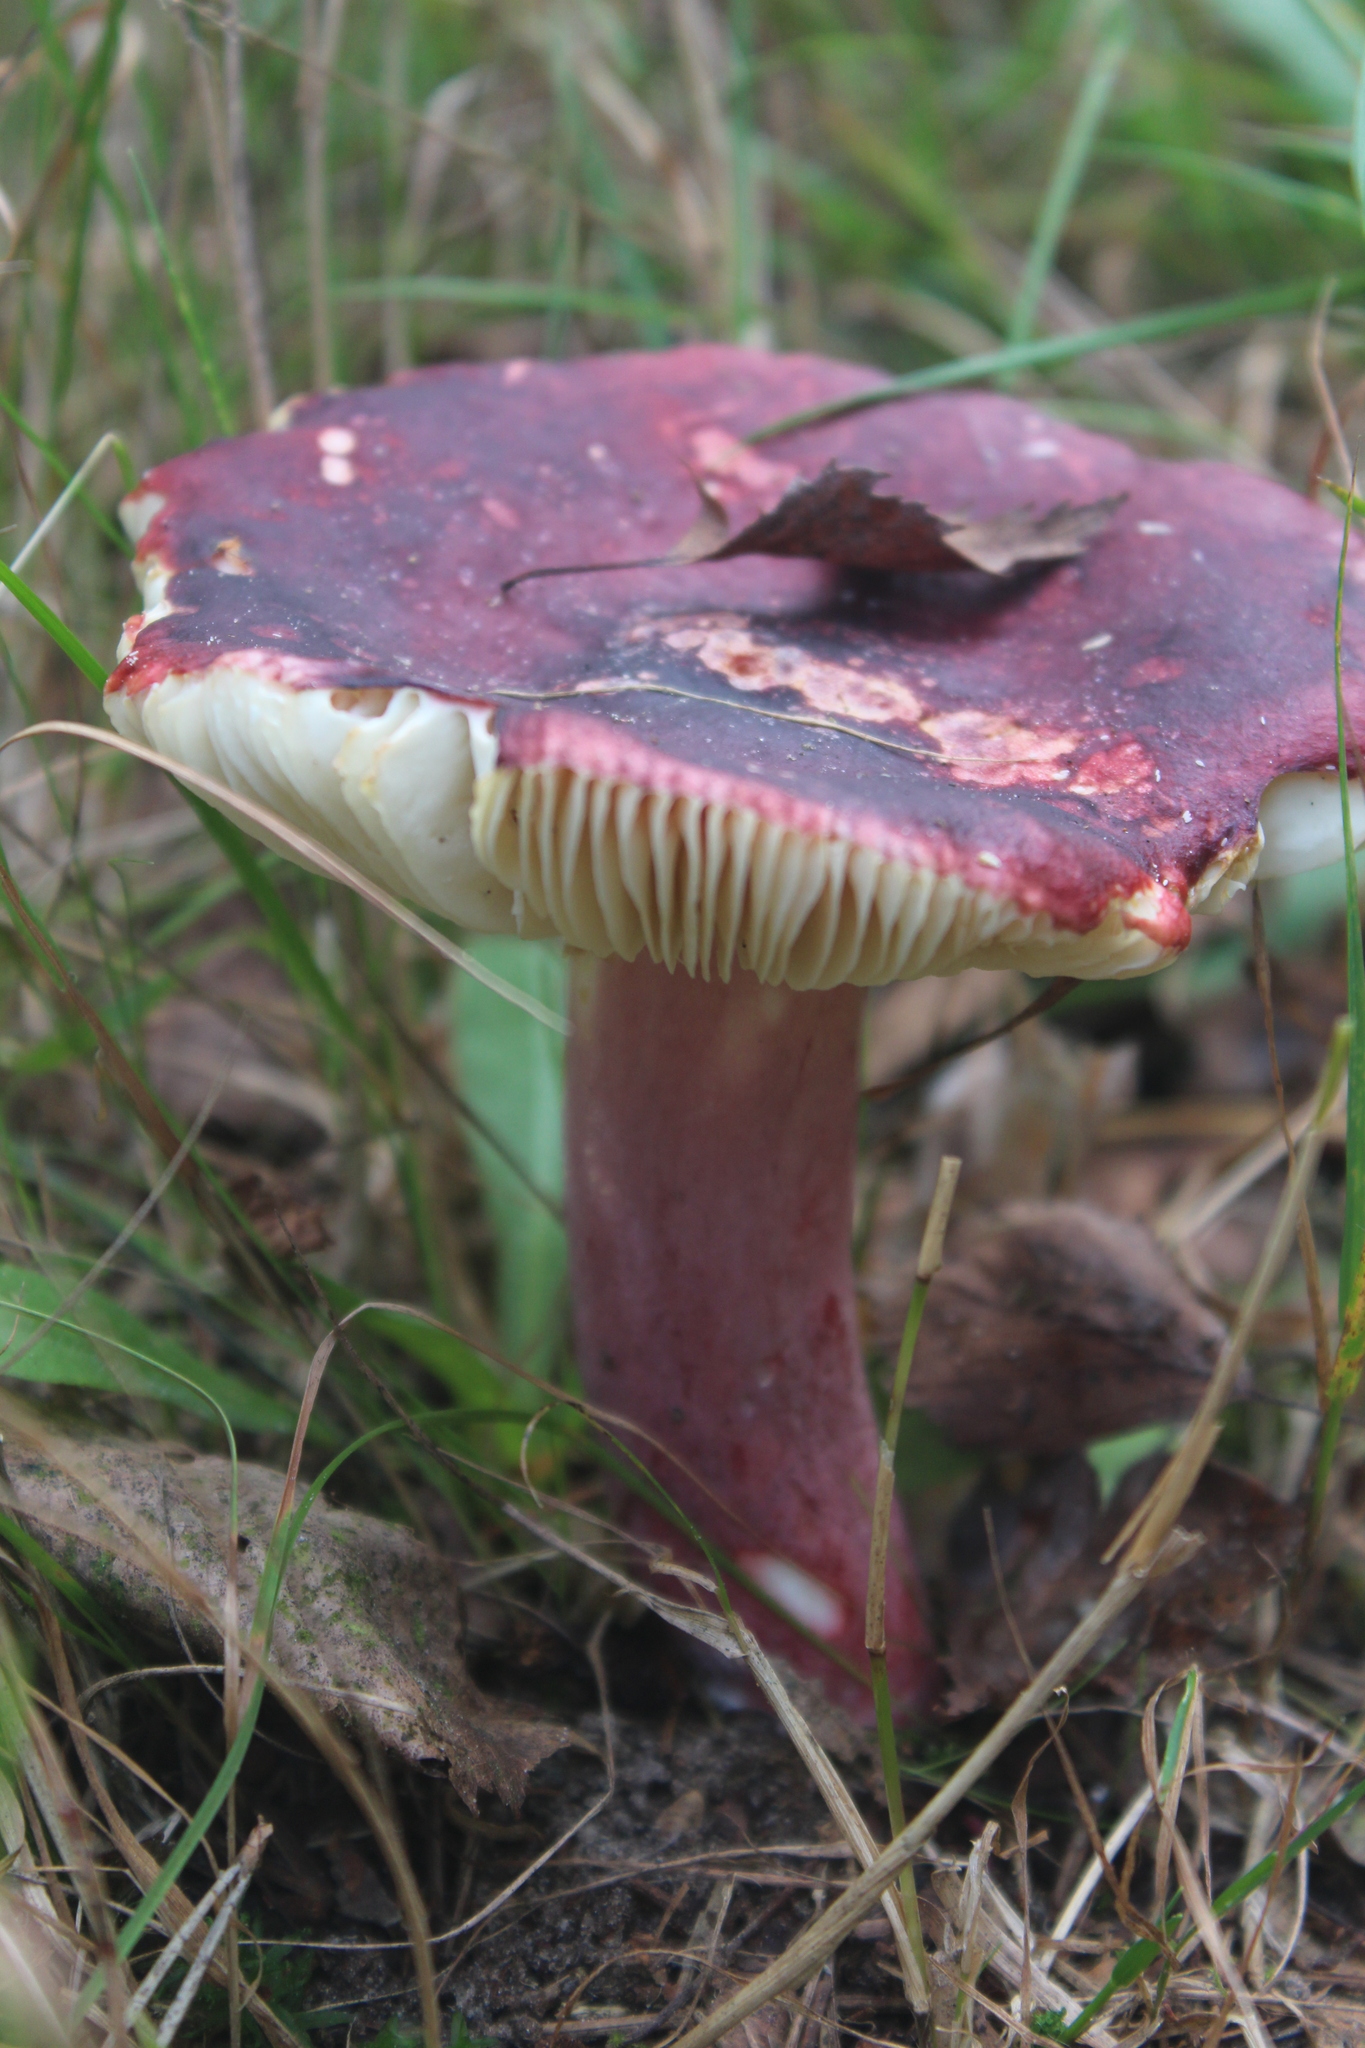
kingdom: Fungi
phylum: Basidiomycota
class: Agaricomycetes
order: Russulales
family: Russulaceae
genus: Russula
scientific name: Russula sardonia
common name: Primrose brittlegill
